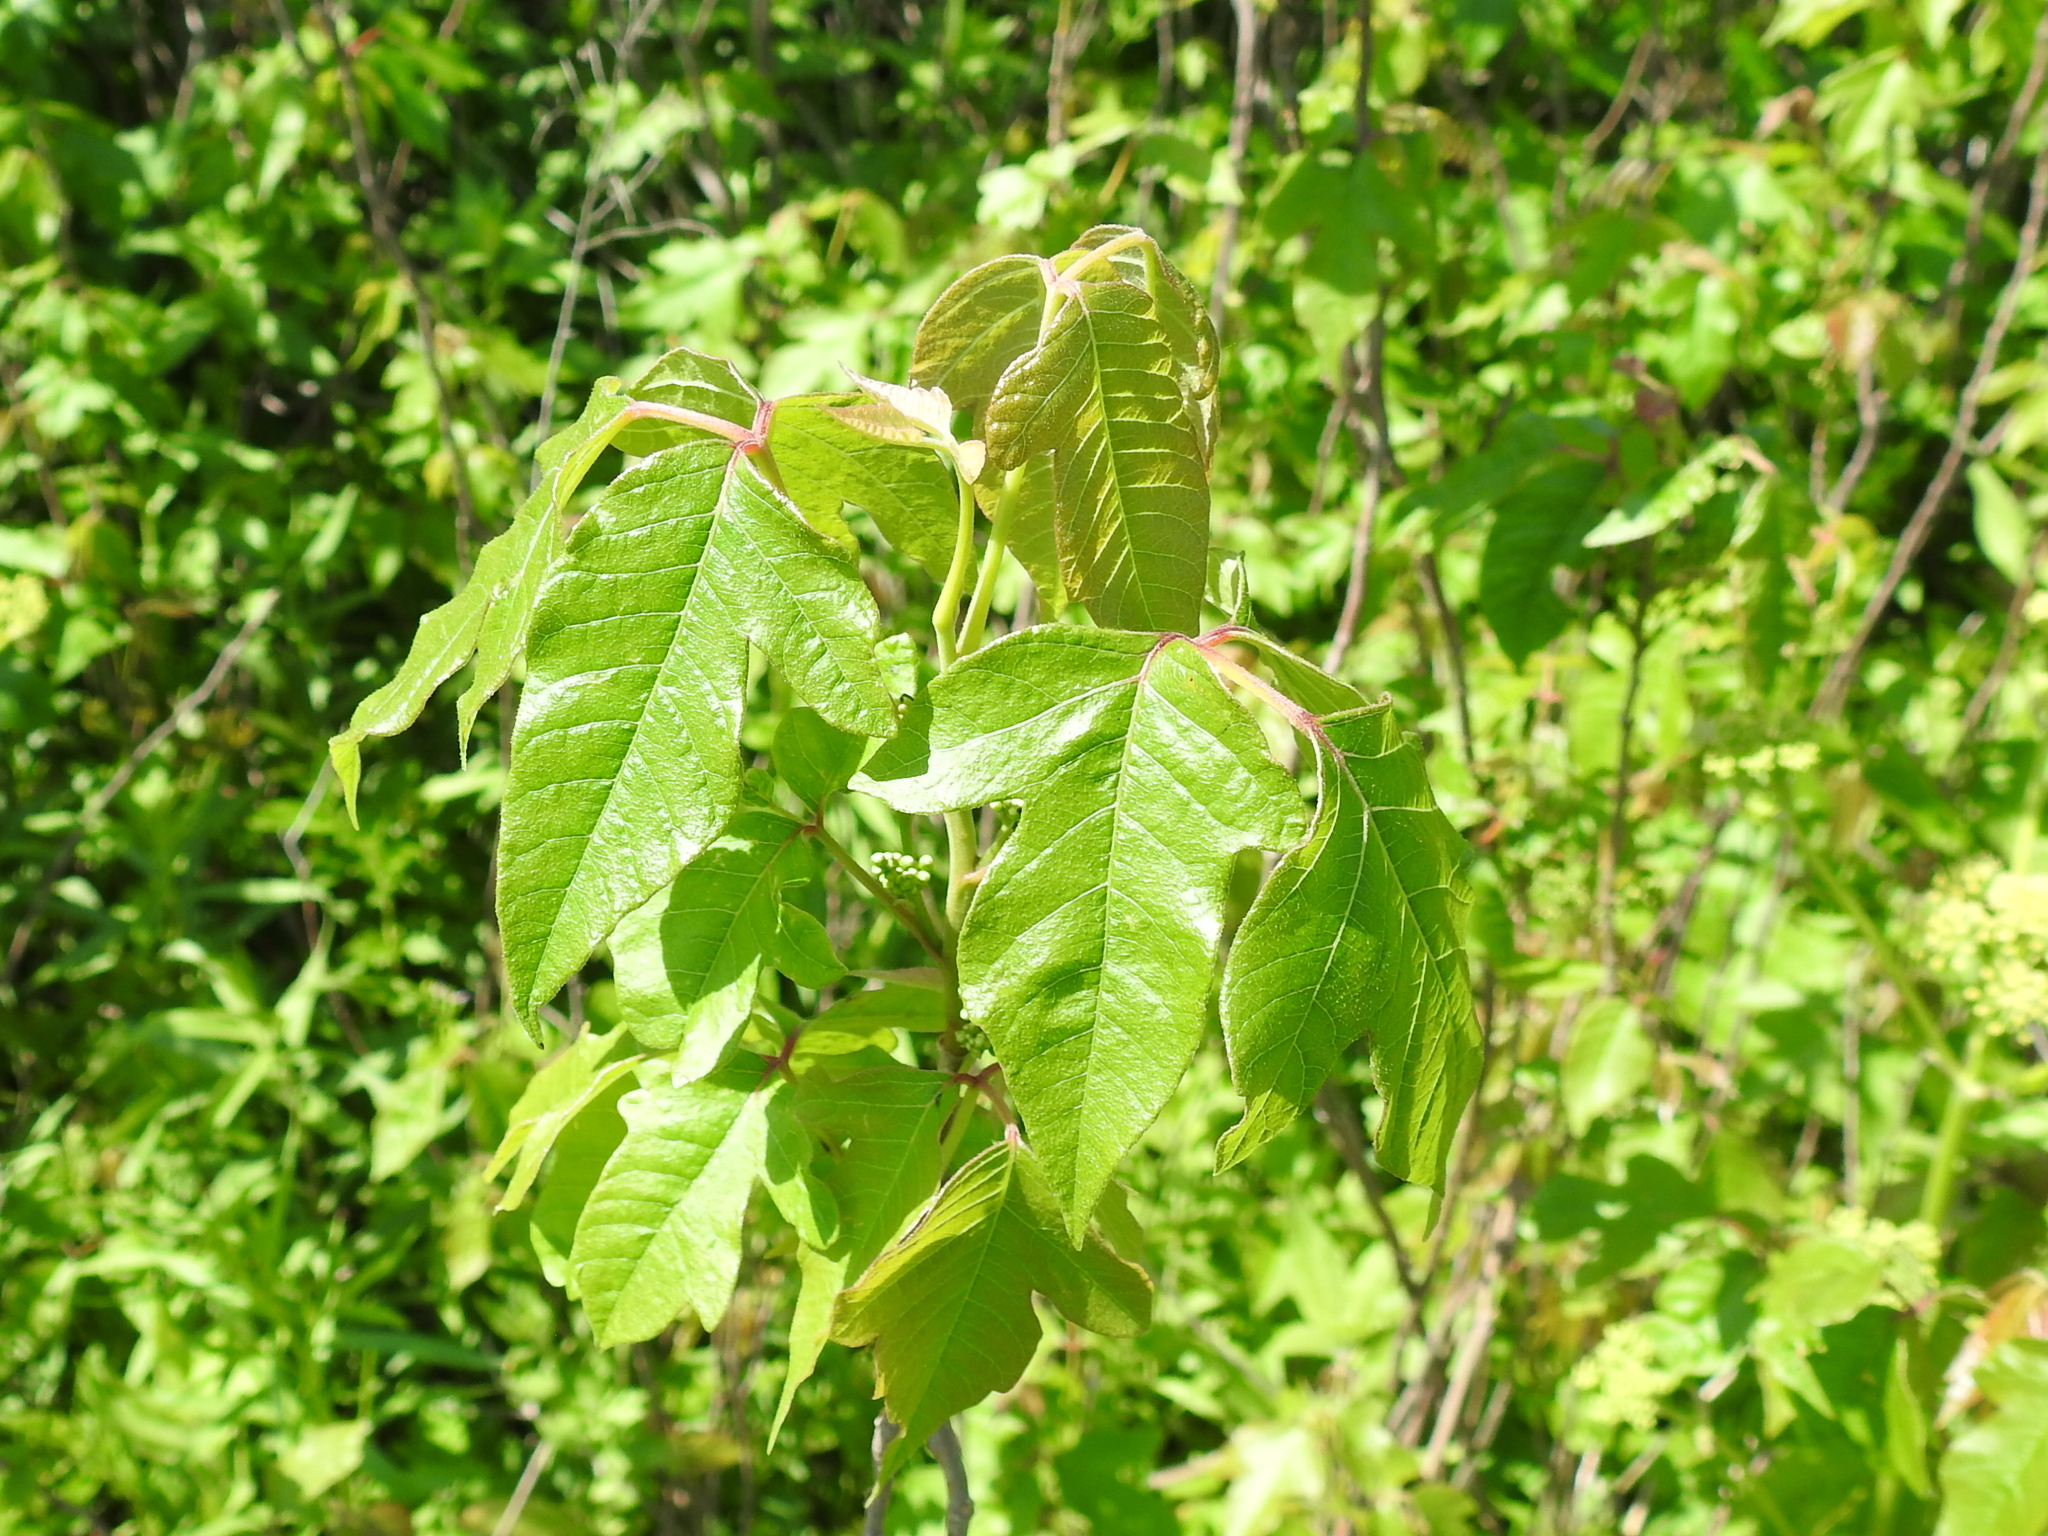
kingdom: Plantae
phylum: Tracheophyta
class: Magnoliopsida
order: Sapindales
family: Anacardiaceae
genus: Toxicodendron
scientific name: Toxicodendron radicans
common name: Poison ivy
